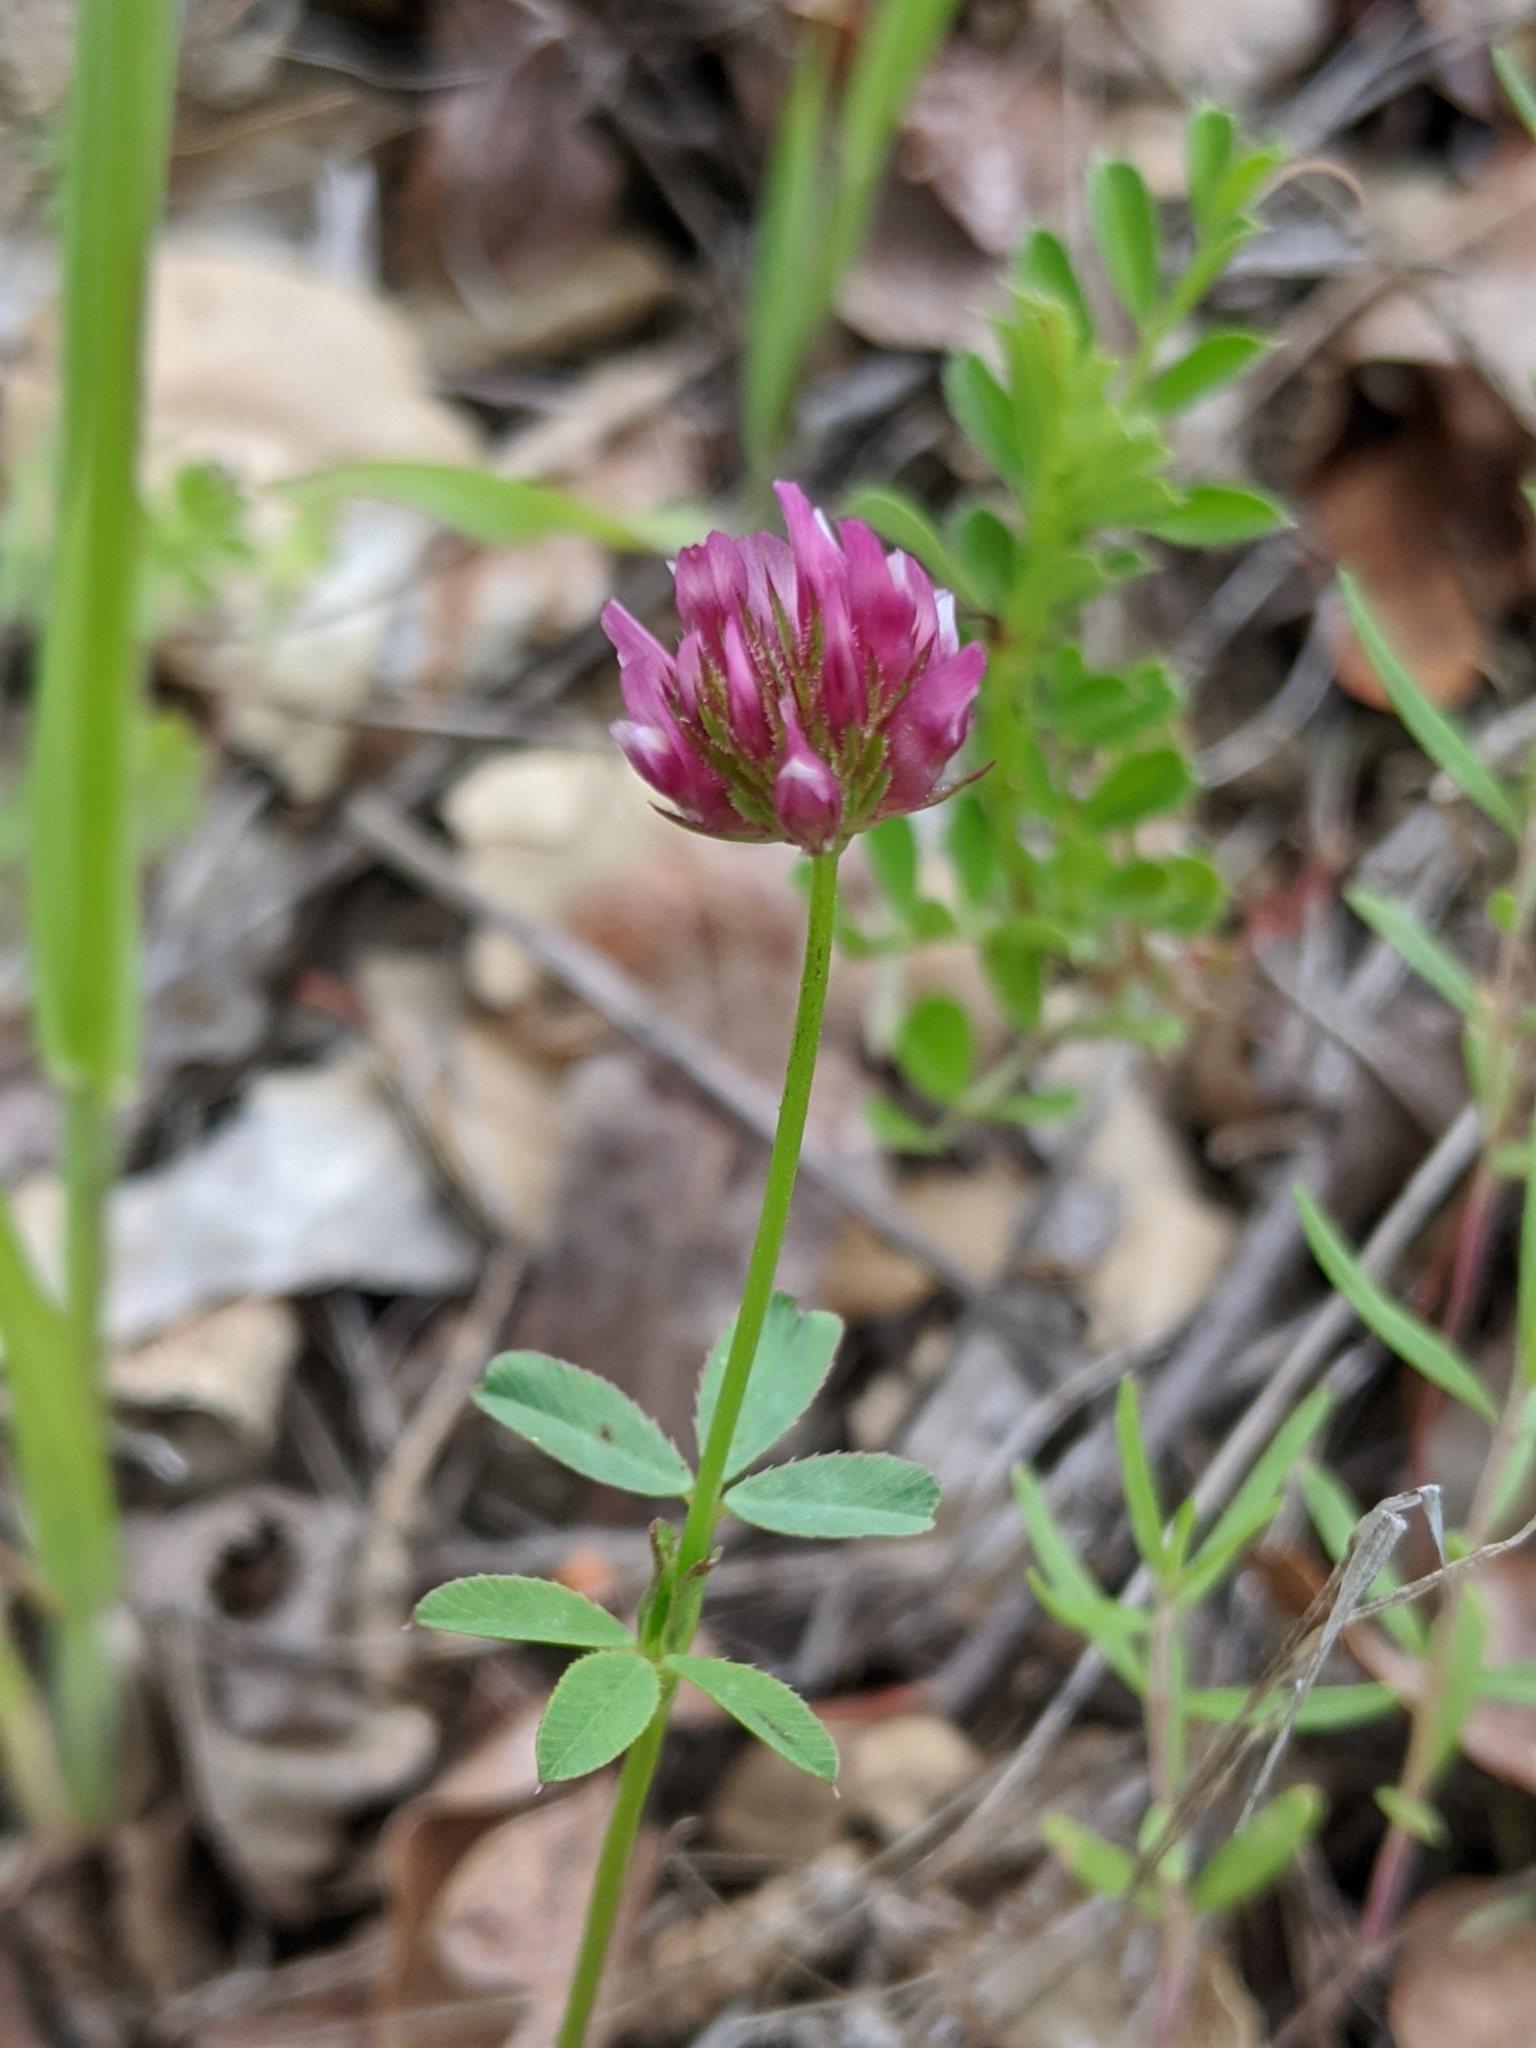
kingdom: Plantae
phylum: Tracheophyta
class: Magnoliopsida
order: Fabales
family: Fabaceae
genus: Trifolium
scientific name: Trifolium ciliolatum
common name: Foothill clover
